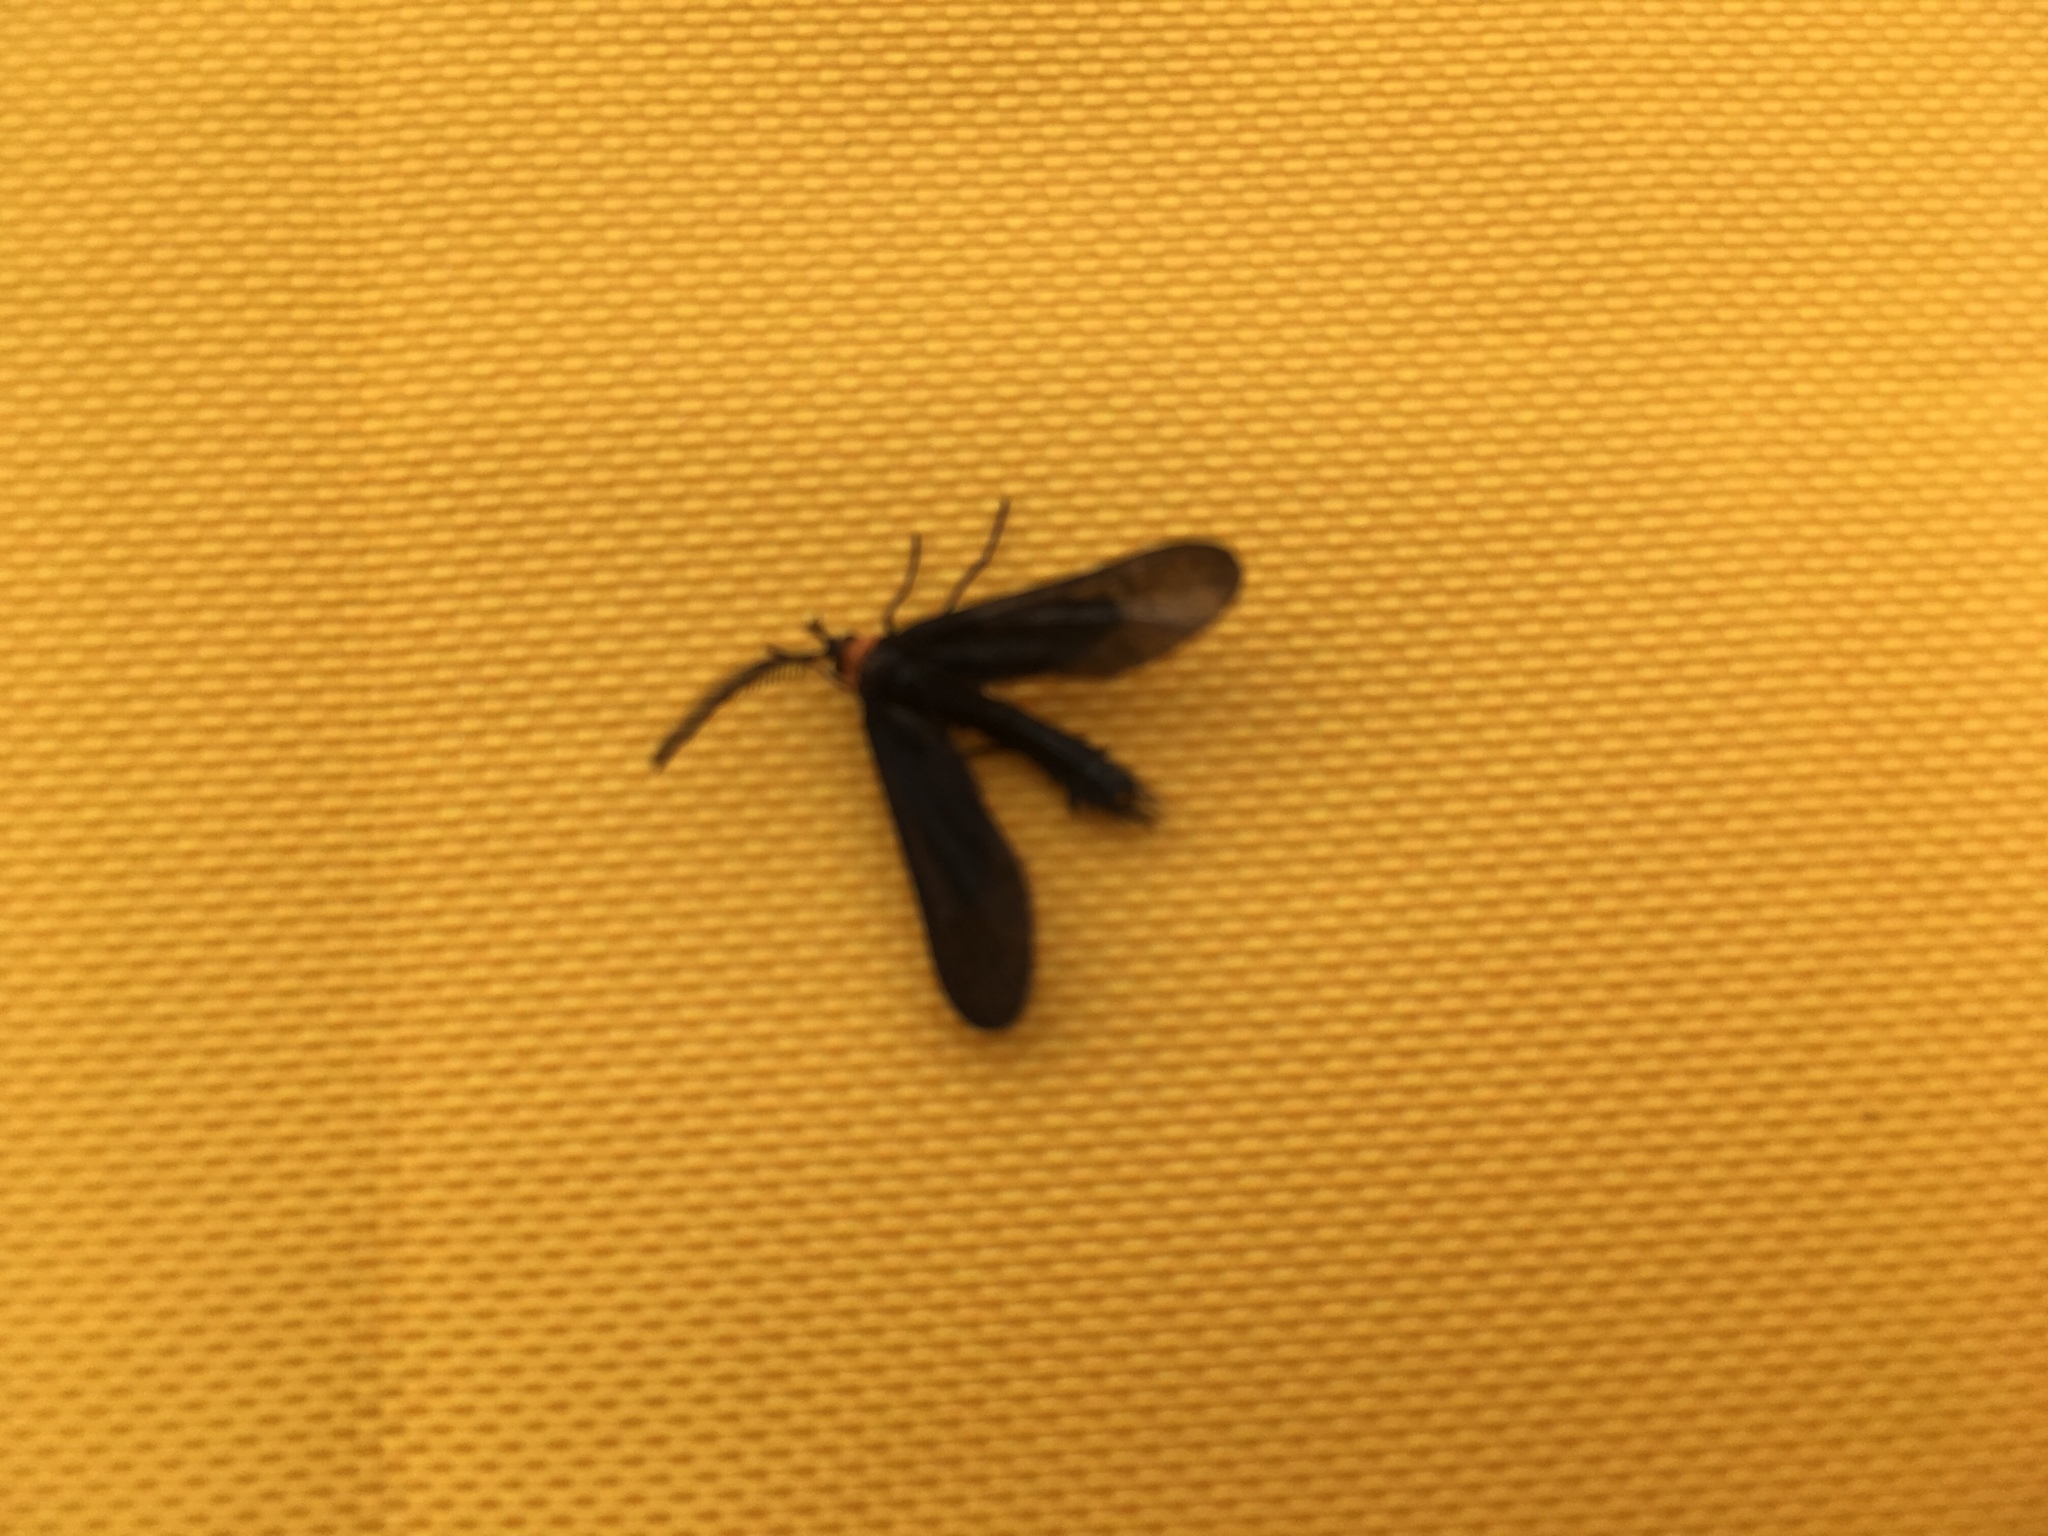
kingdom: Animalia
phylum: Arthropoda
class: Insecta
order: Lepidoptera
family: Zygaenidae
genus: Harrisina
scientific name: Harrisina americana
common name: Grapeleaf skeletonizer moth
